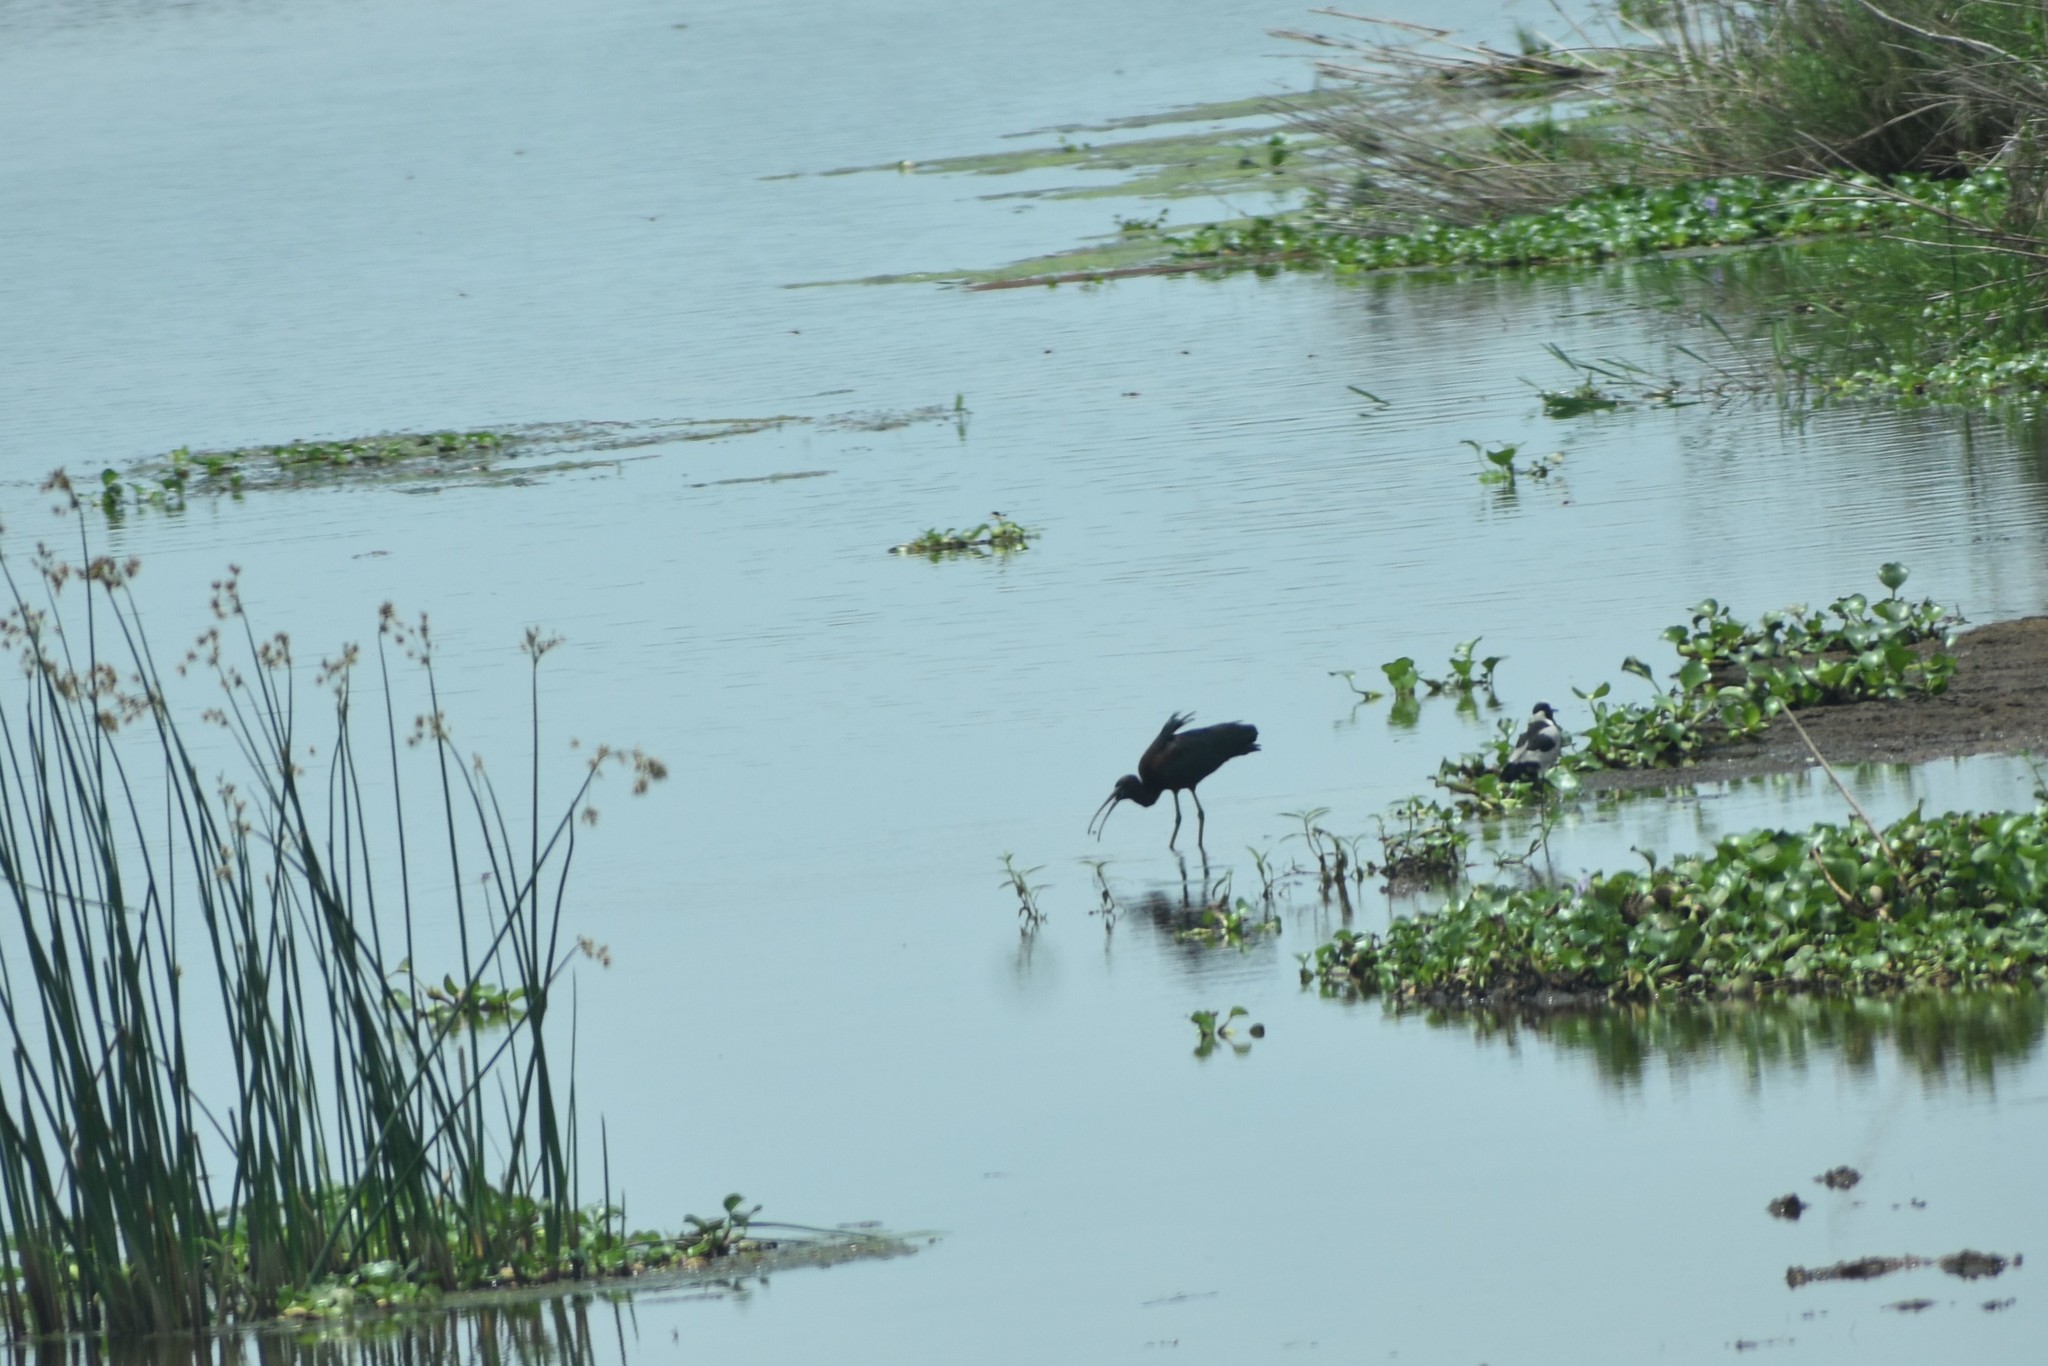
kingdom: Animalia
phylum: Chordata
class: Aves
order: Pelecaniformes
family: Threskiornithidae
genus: Plegadis
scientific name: Plegadis falcinellus
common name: Glossy ibis
